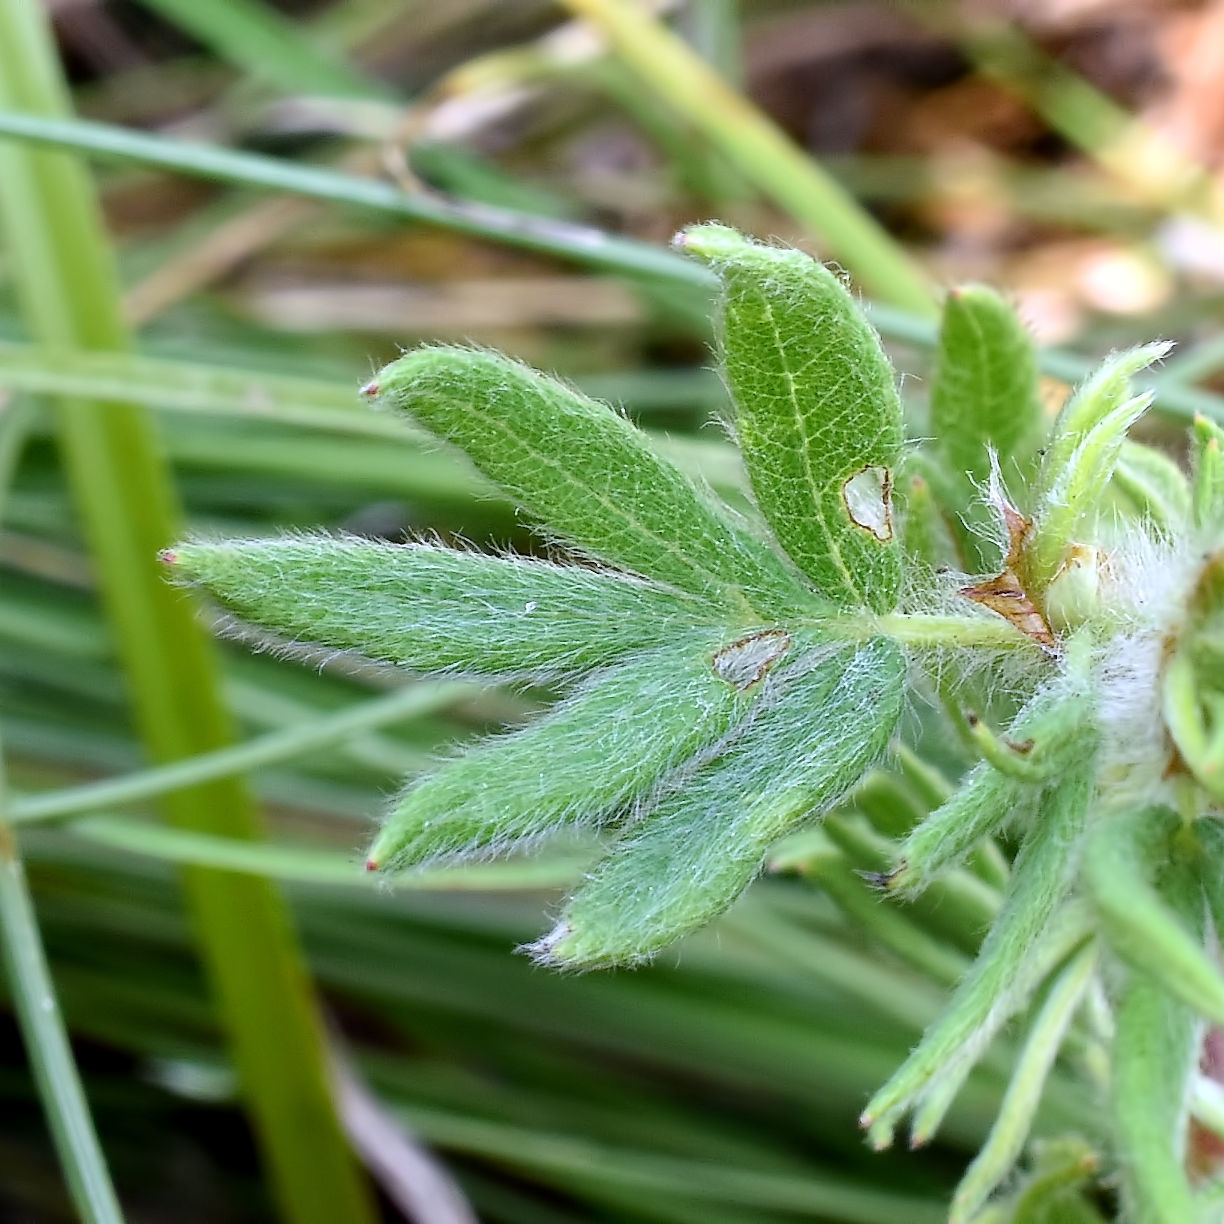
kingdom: Plantae
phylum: Tracheophyta
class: Magnoliopsida
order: Rosales
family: Rosaceae
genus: Dasiphora
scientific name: Dasiphora fruticosa
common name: Shrubby cinquefoil
